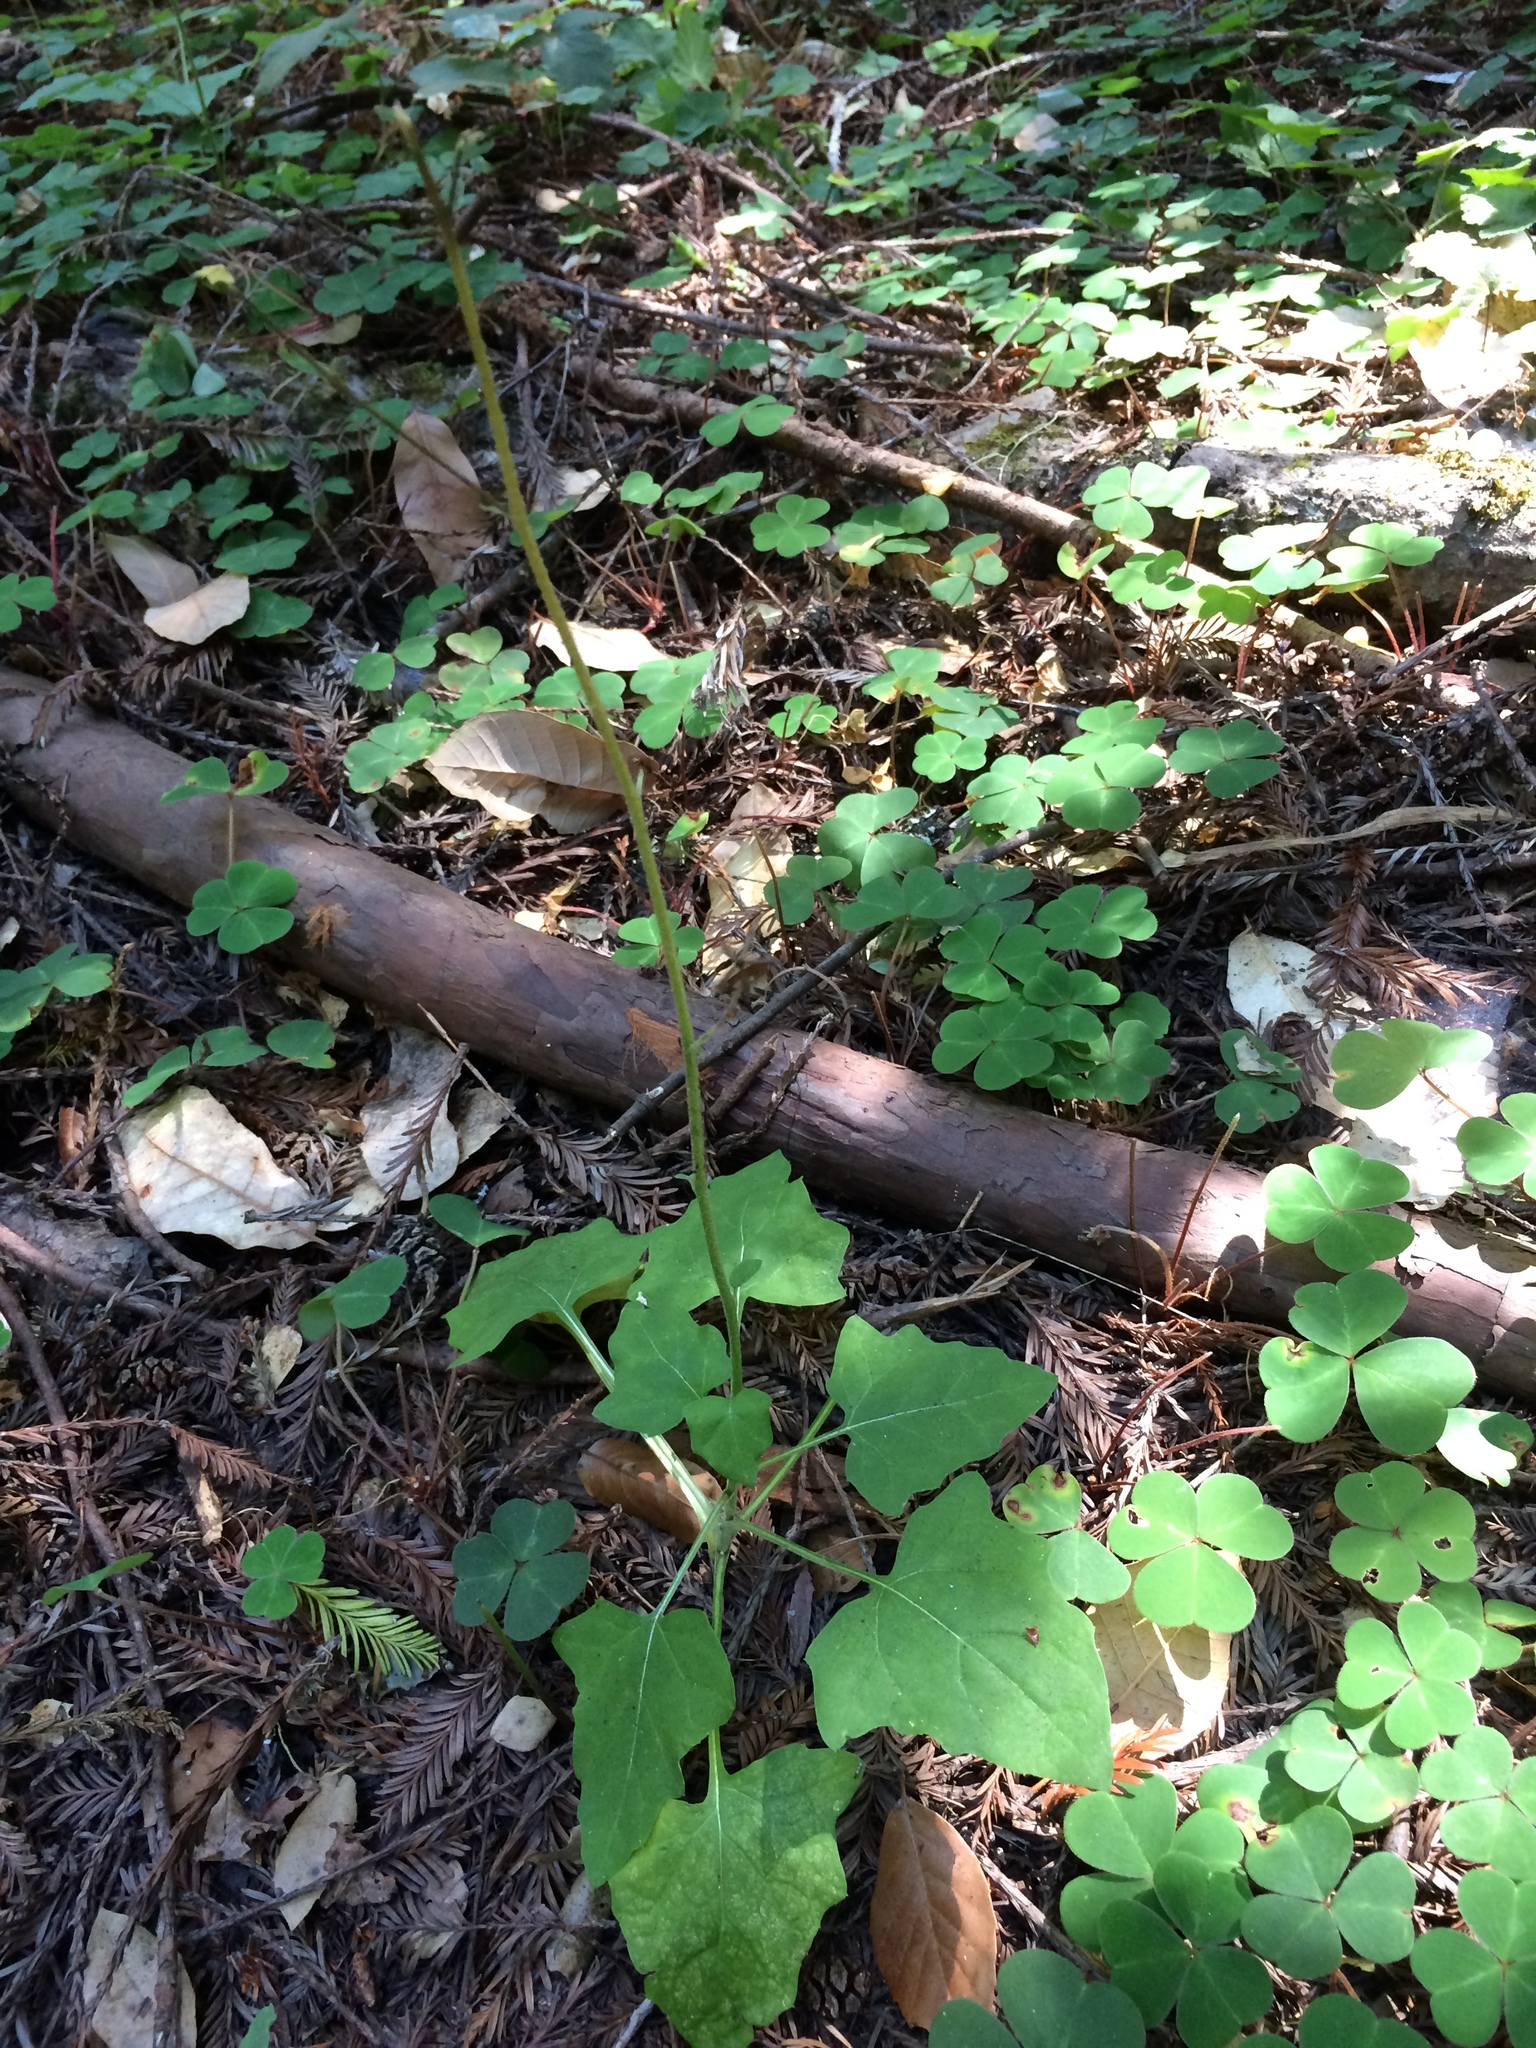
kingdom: Plantae
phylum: Tracheophyta
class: Magnoliopsida
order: Asterales
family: Asteraceae
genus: Adenocaulon
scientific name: Adenocaulon bicolor
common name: Trailplant
